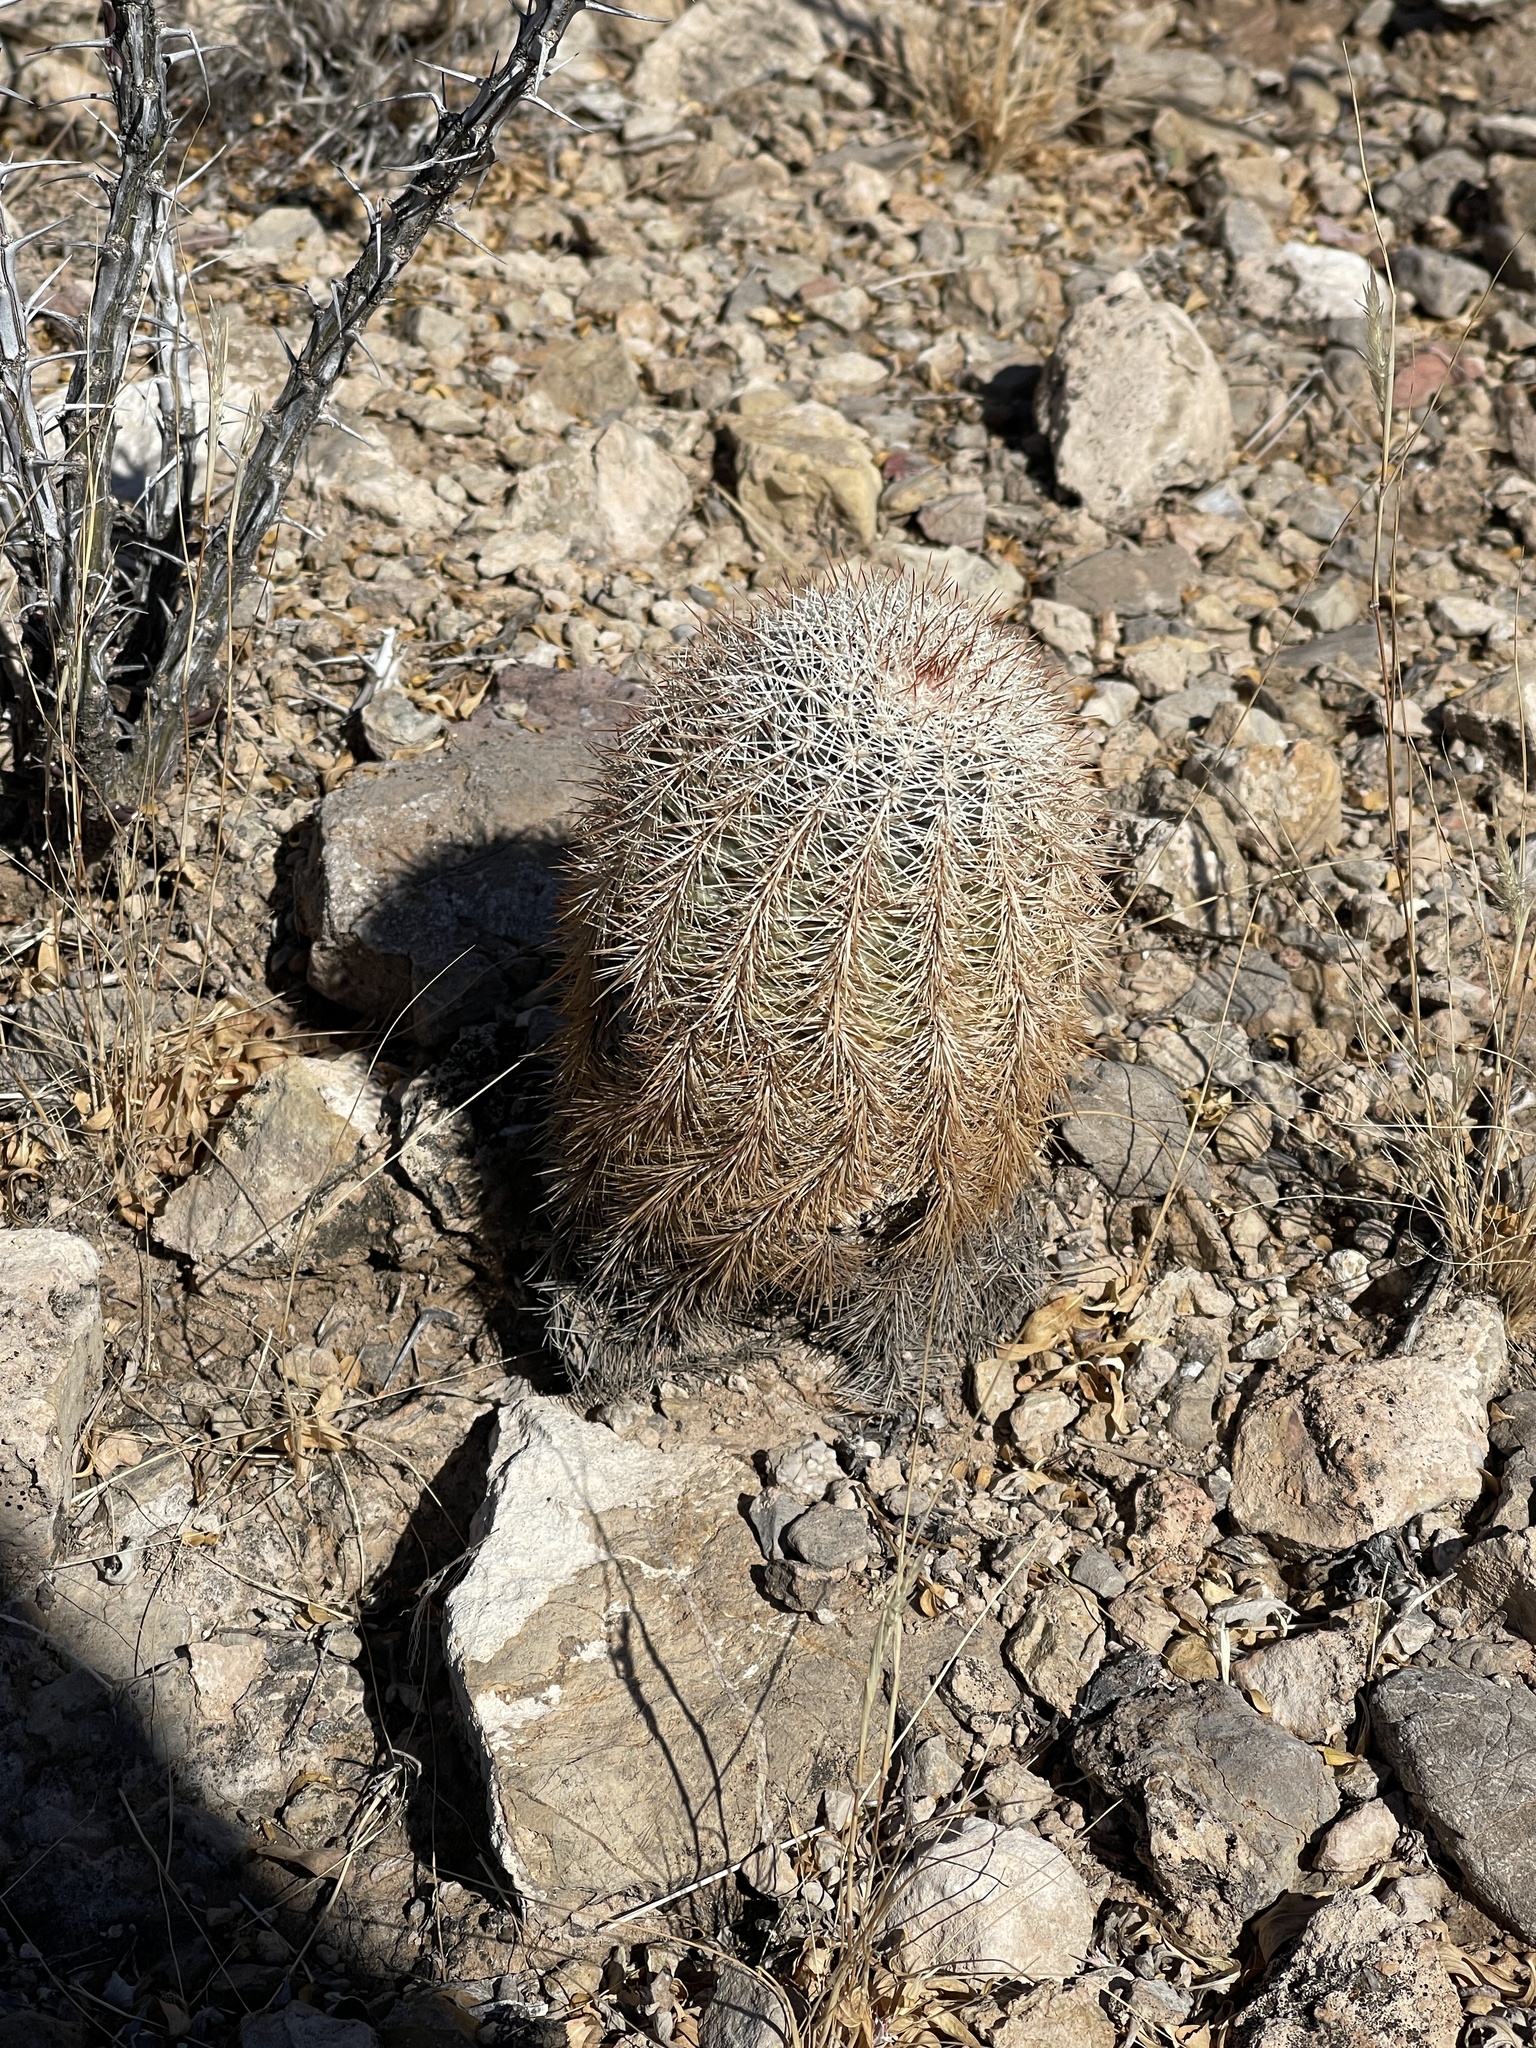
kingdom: Plantae
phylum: Tracheophyta
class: Magnoliopsida
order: Caryophyllales
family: Cactaceae
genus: Echinocereus
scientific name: Echinocereus dasyacanthus
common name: Spiny hedgehog cactus
